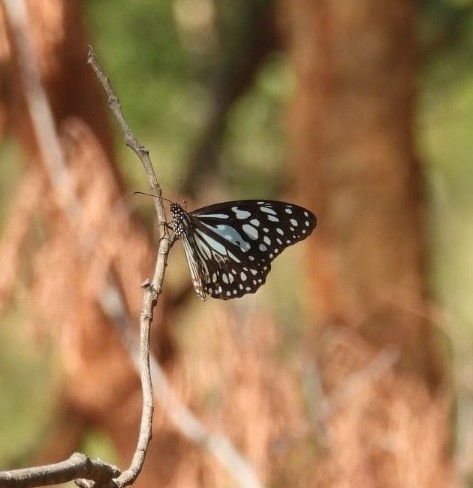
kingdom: Animalia
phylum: Arthropoda
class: Insecta
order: Lepidoptera
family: Nymphalidae
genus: Tirumala
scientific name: Tirumala limniace
